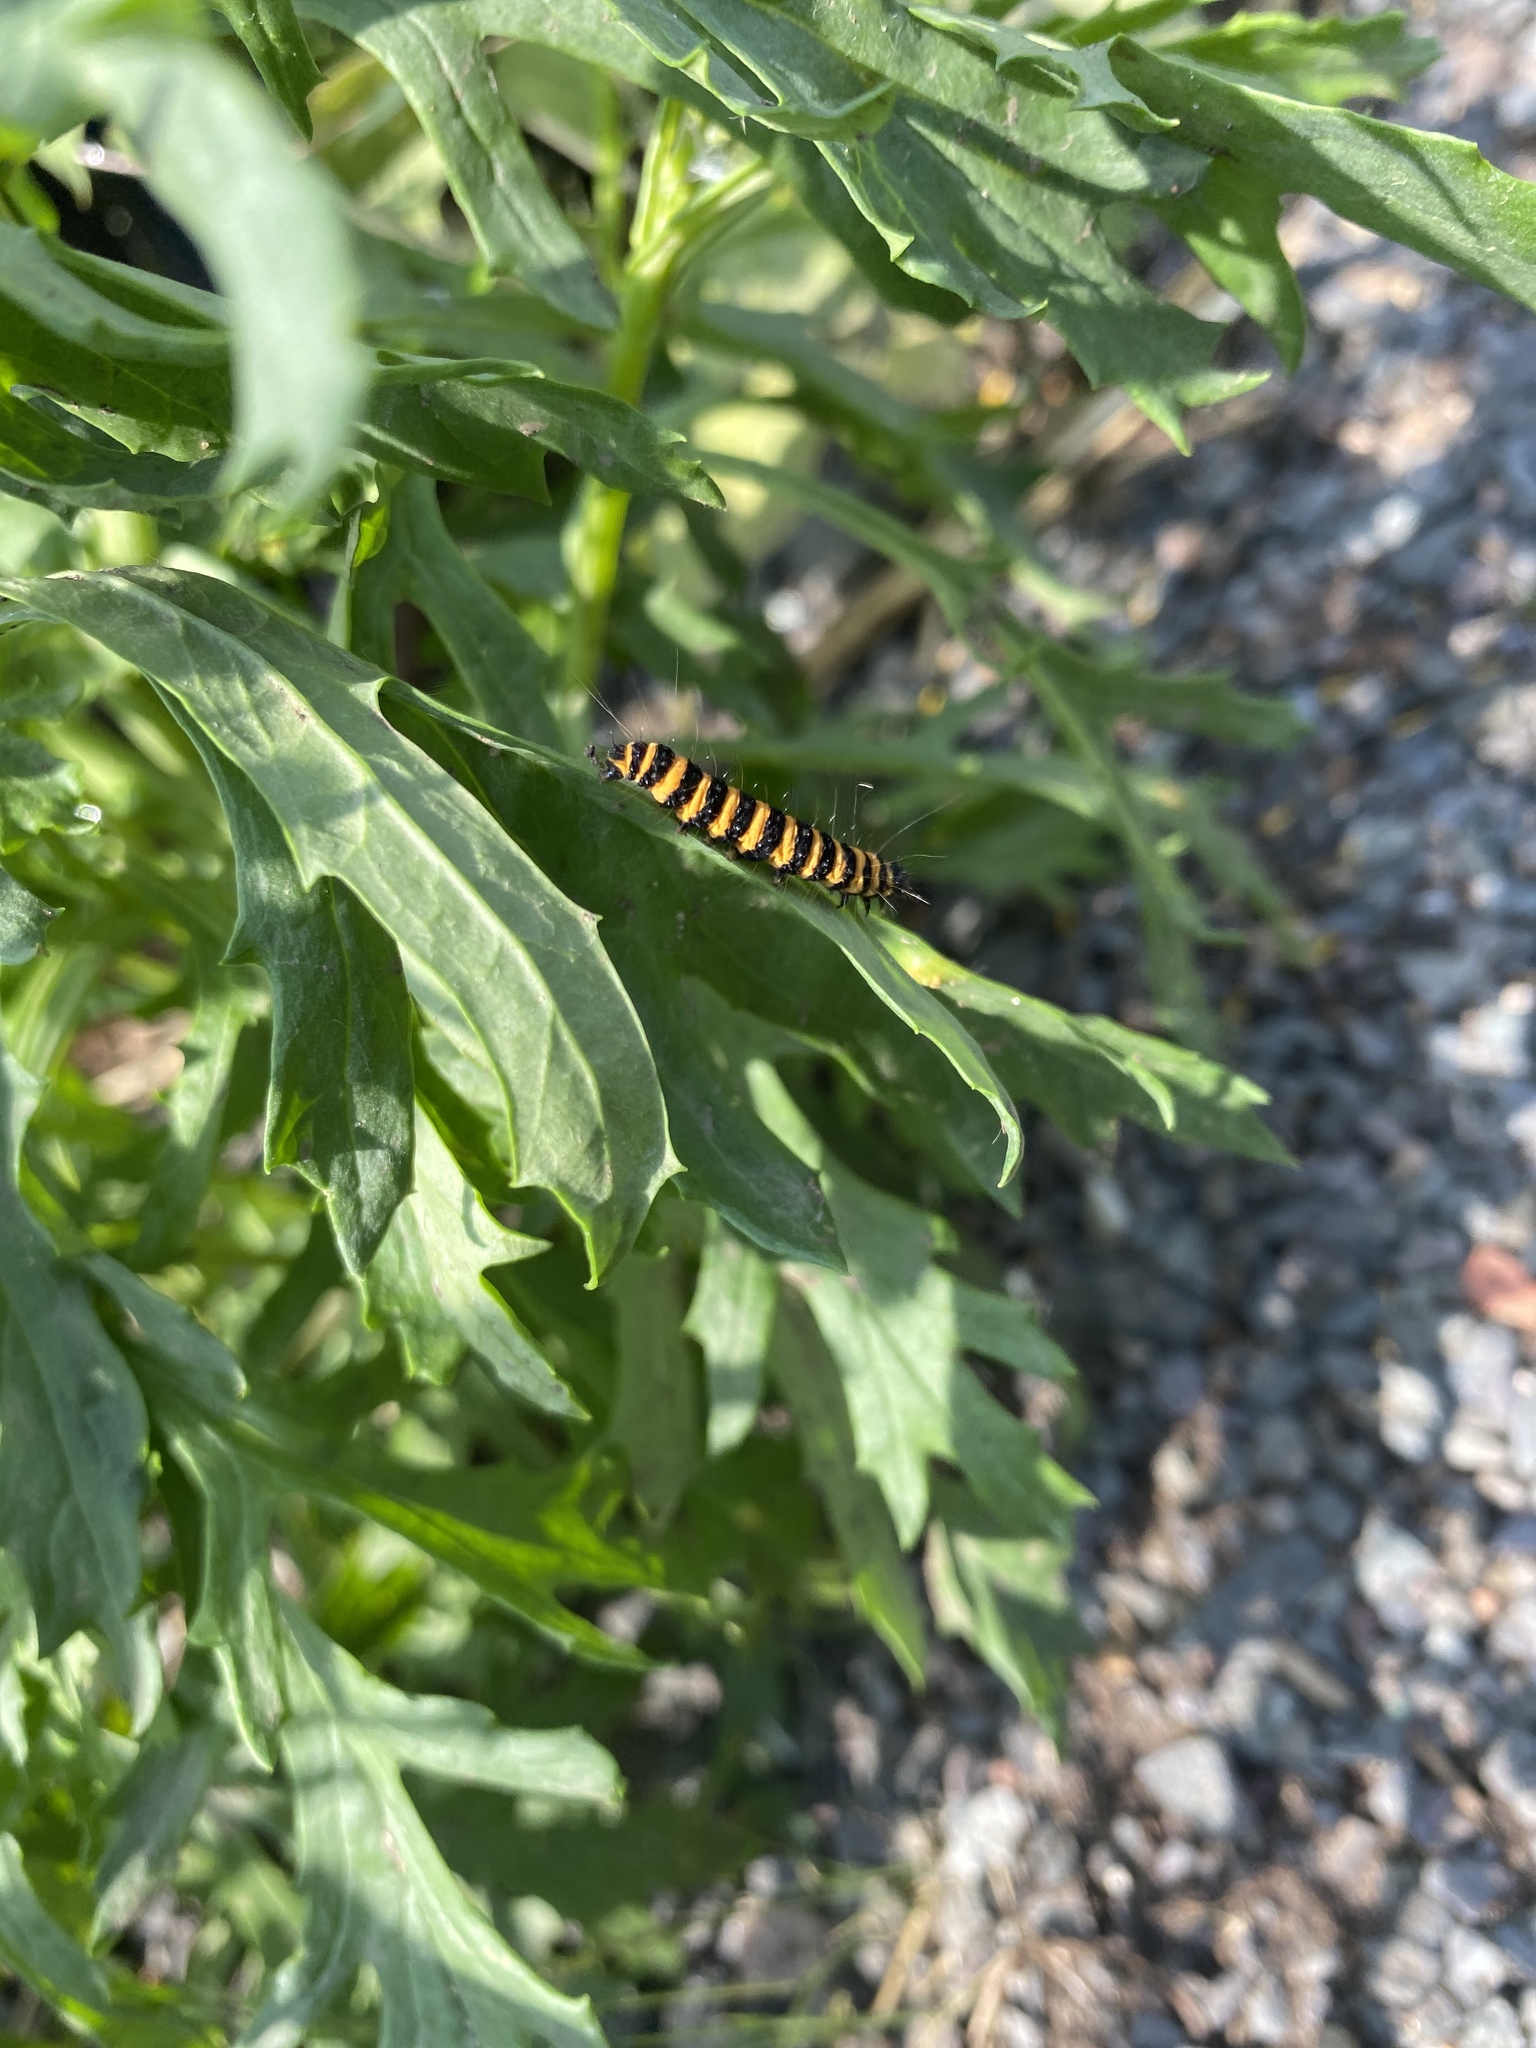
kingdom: Animalia
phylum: Arthropoda
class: Insecta
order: Lepidoptera
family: Erebidae
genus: Tyria
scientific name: Tyria jacobaeae
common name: Cinnabar
